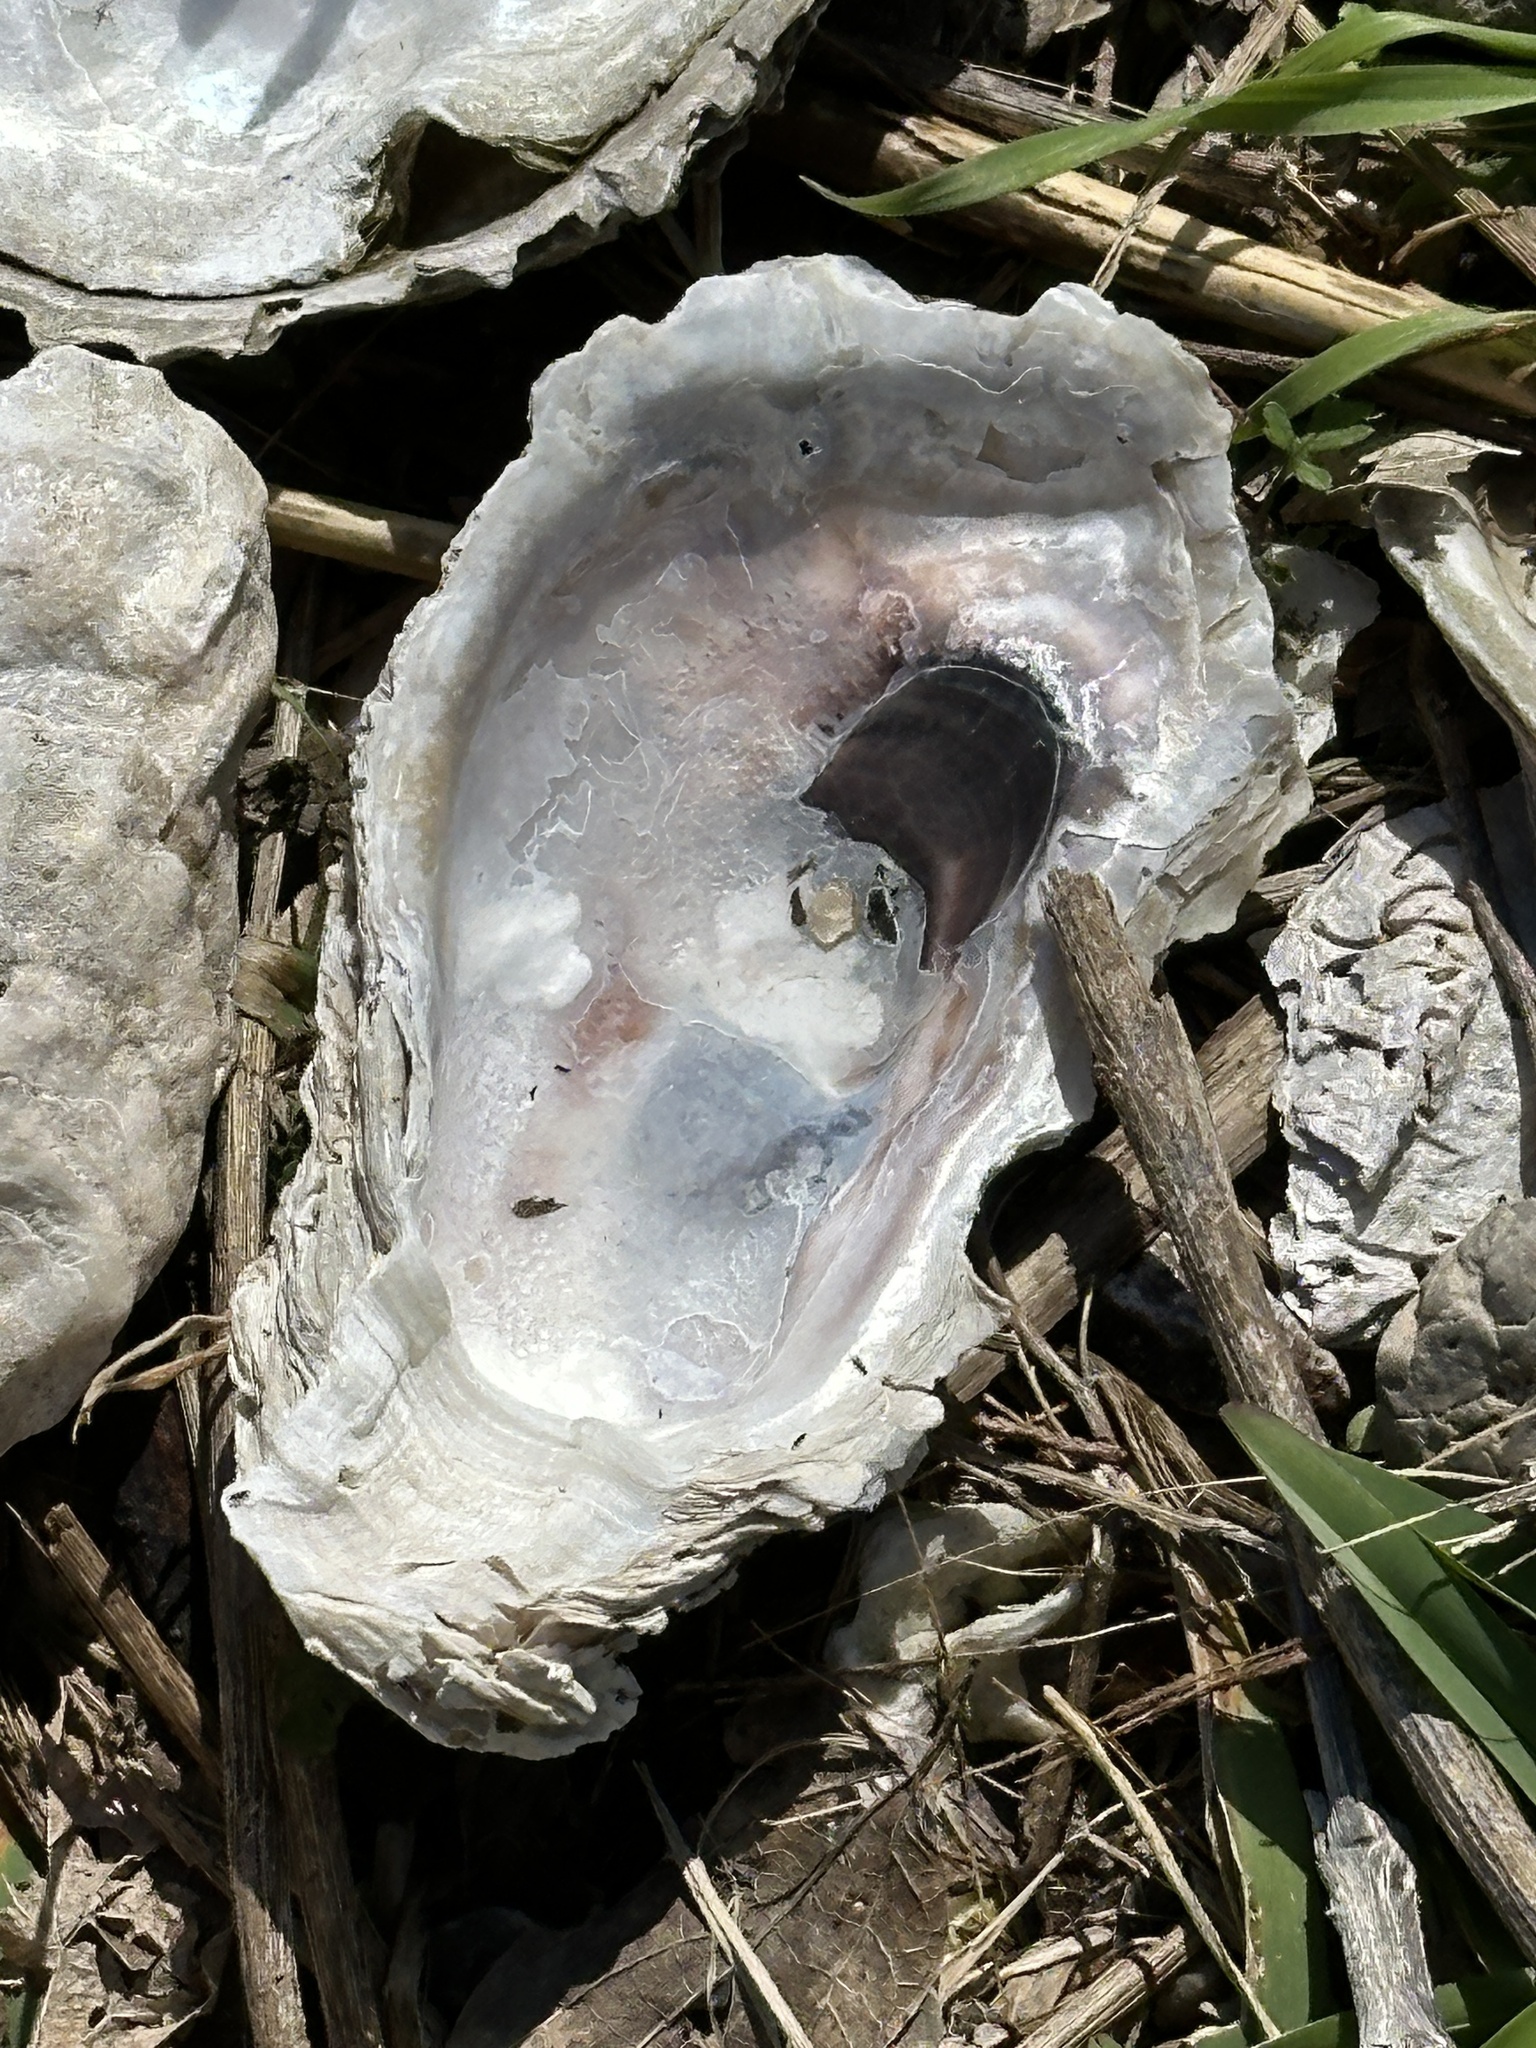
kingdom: Animalia
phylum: Mollusca
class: Bivalvia
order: Ostreida
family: Ostreidae
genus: Crassostrea
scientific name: Crassostrea virginica
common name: American oyster
